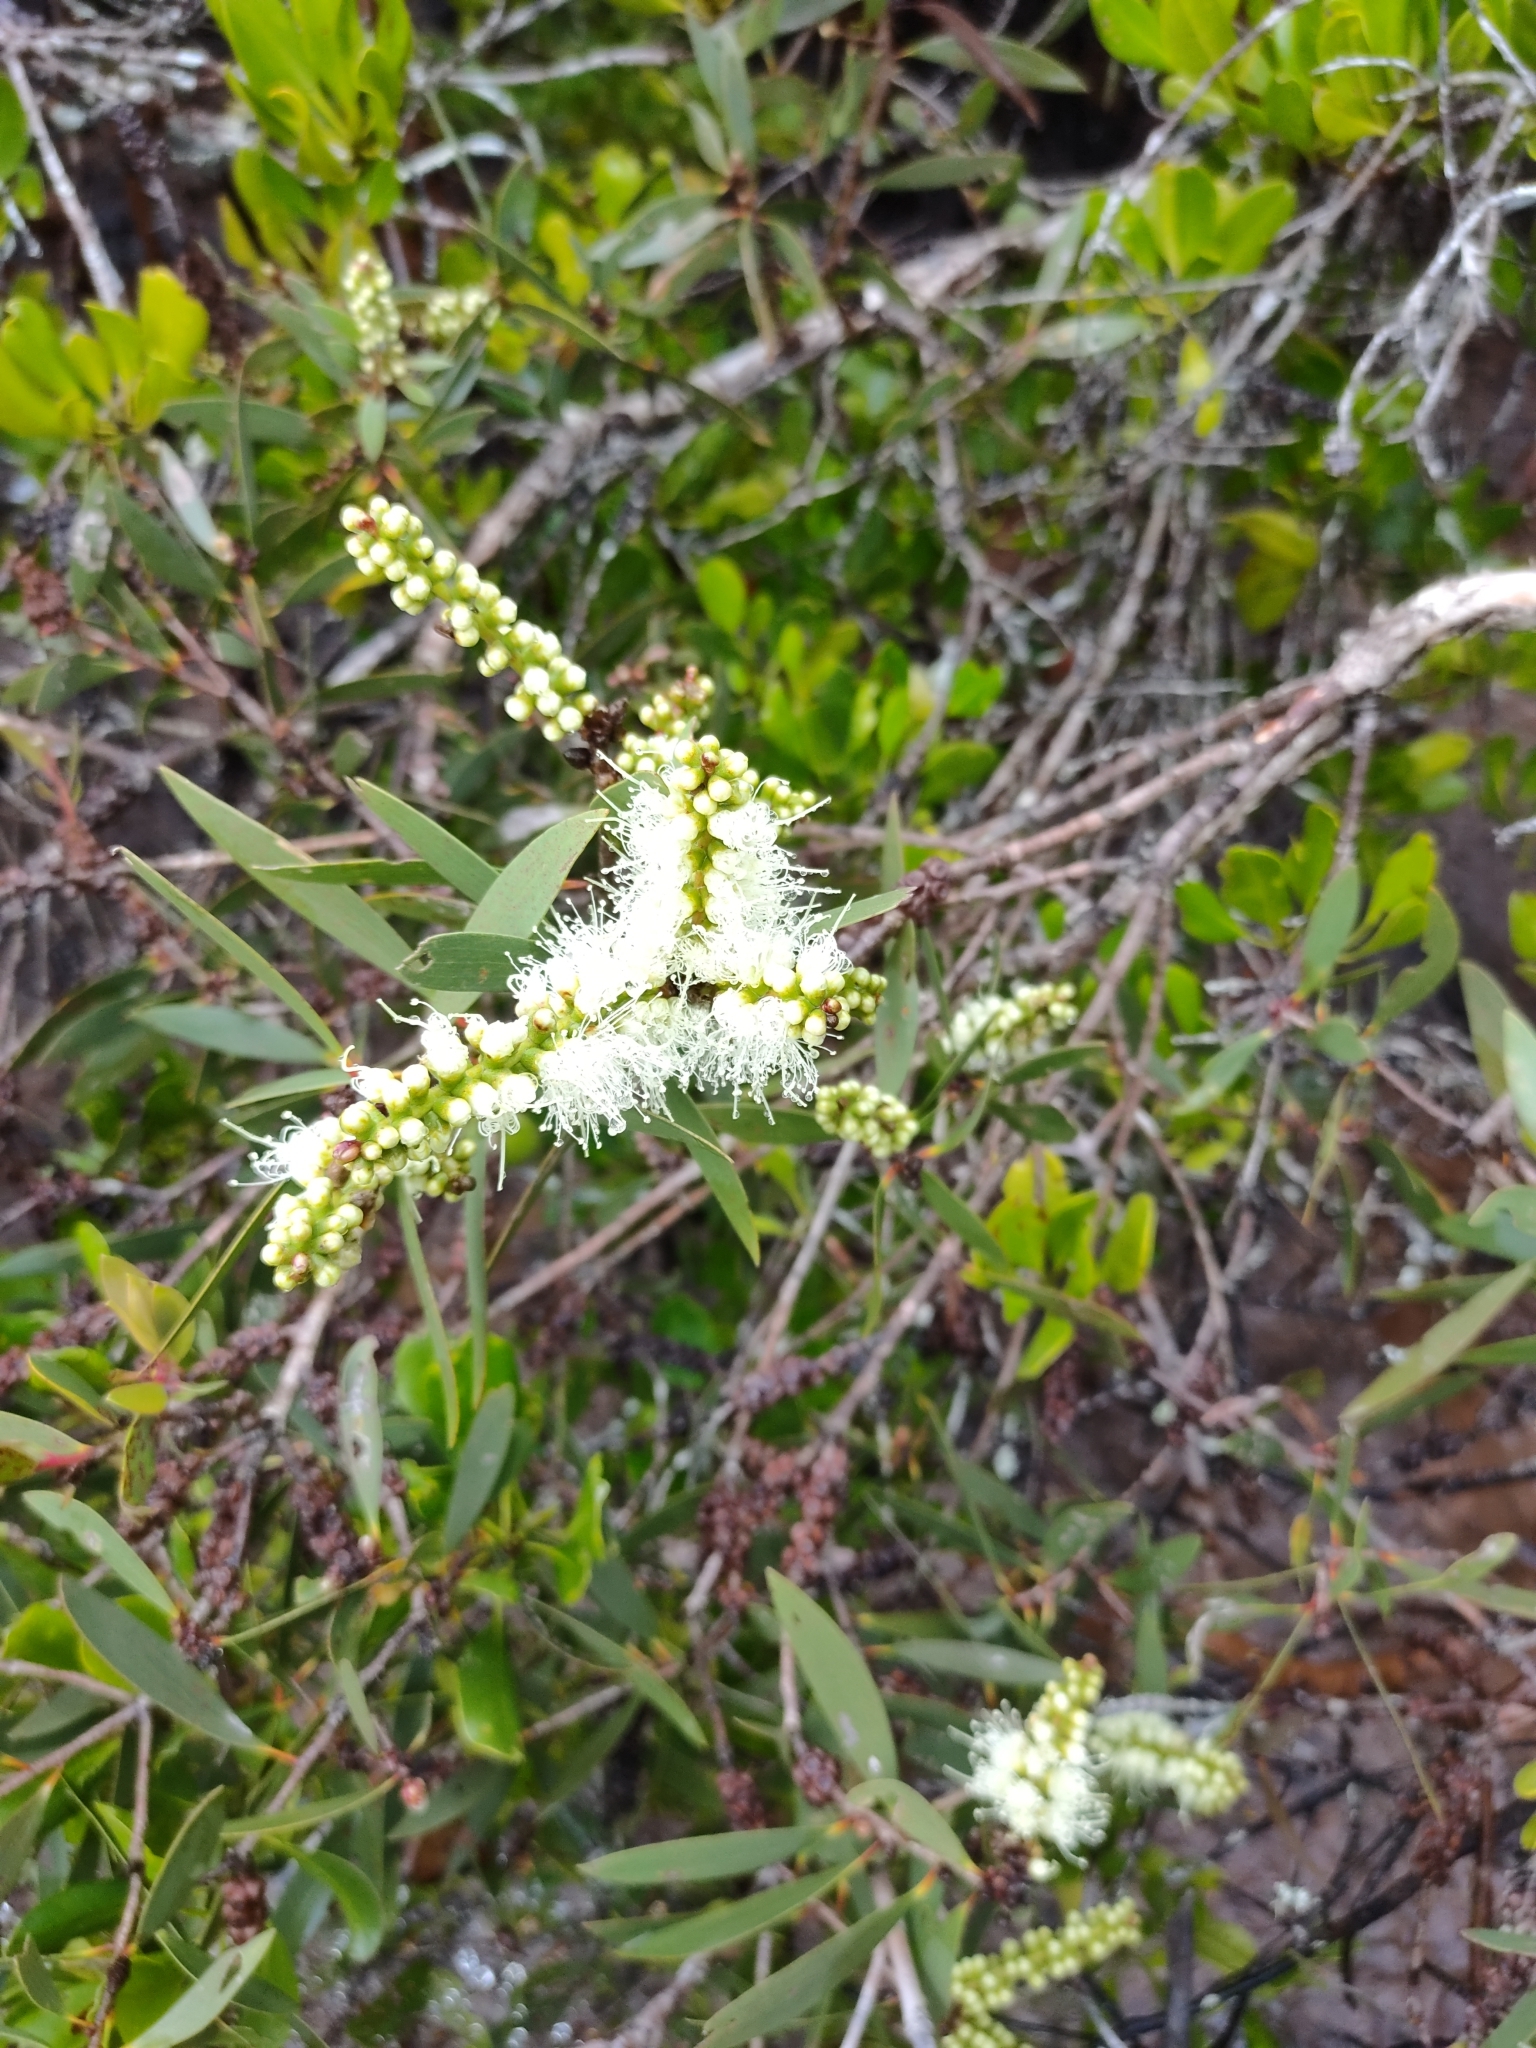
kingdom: Plantae
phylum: Tracheophyta
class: Magnoliopsida
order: Myrtales
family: Myrtaceae
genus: Melaleuca
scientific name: Melaleuca quinquenervia
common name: Punktree
